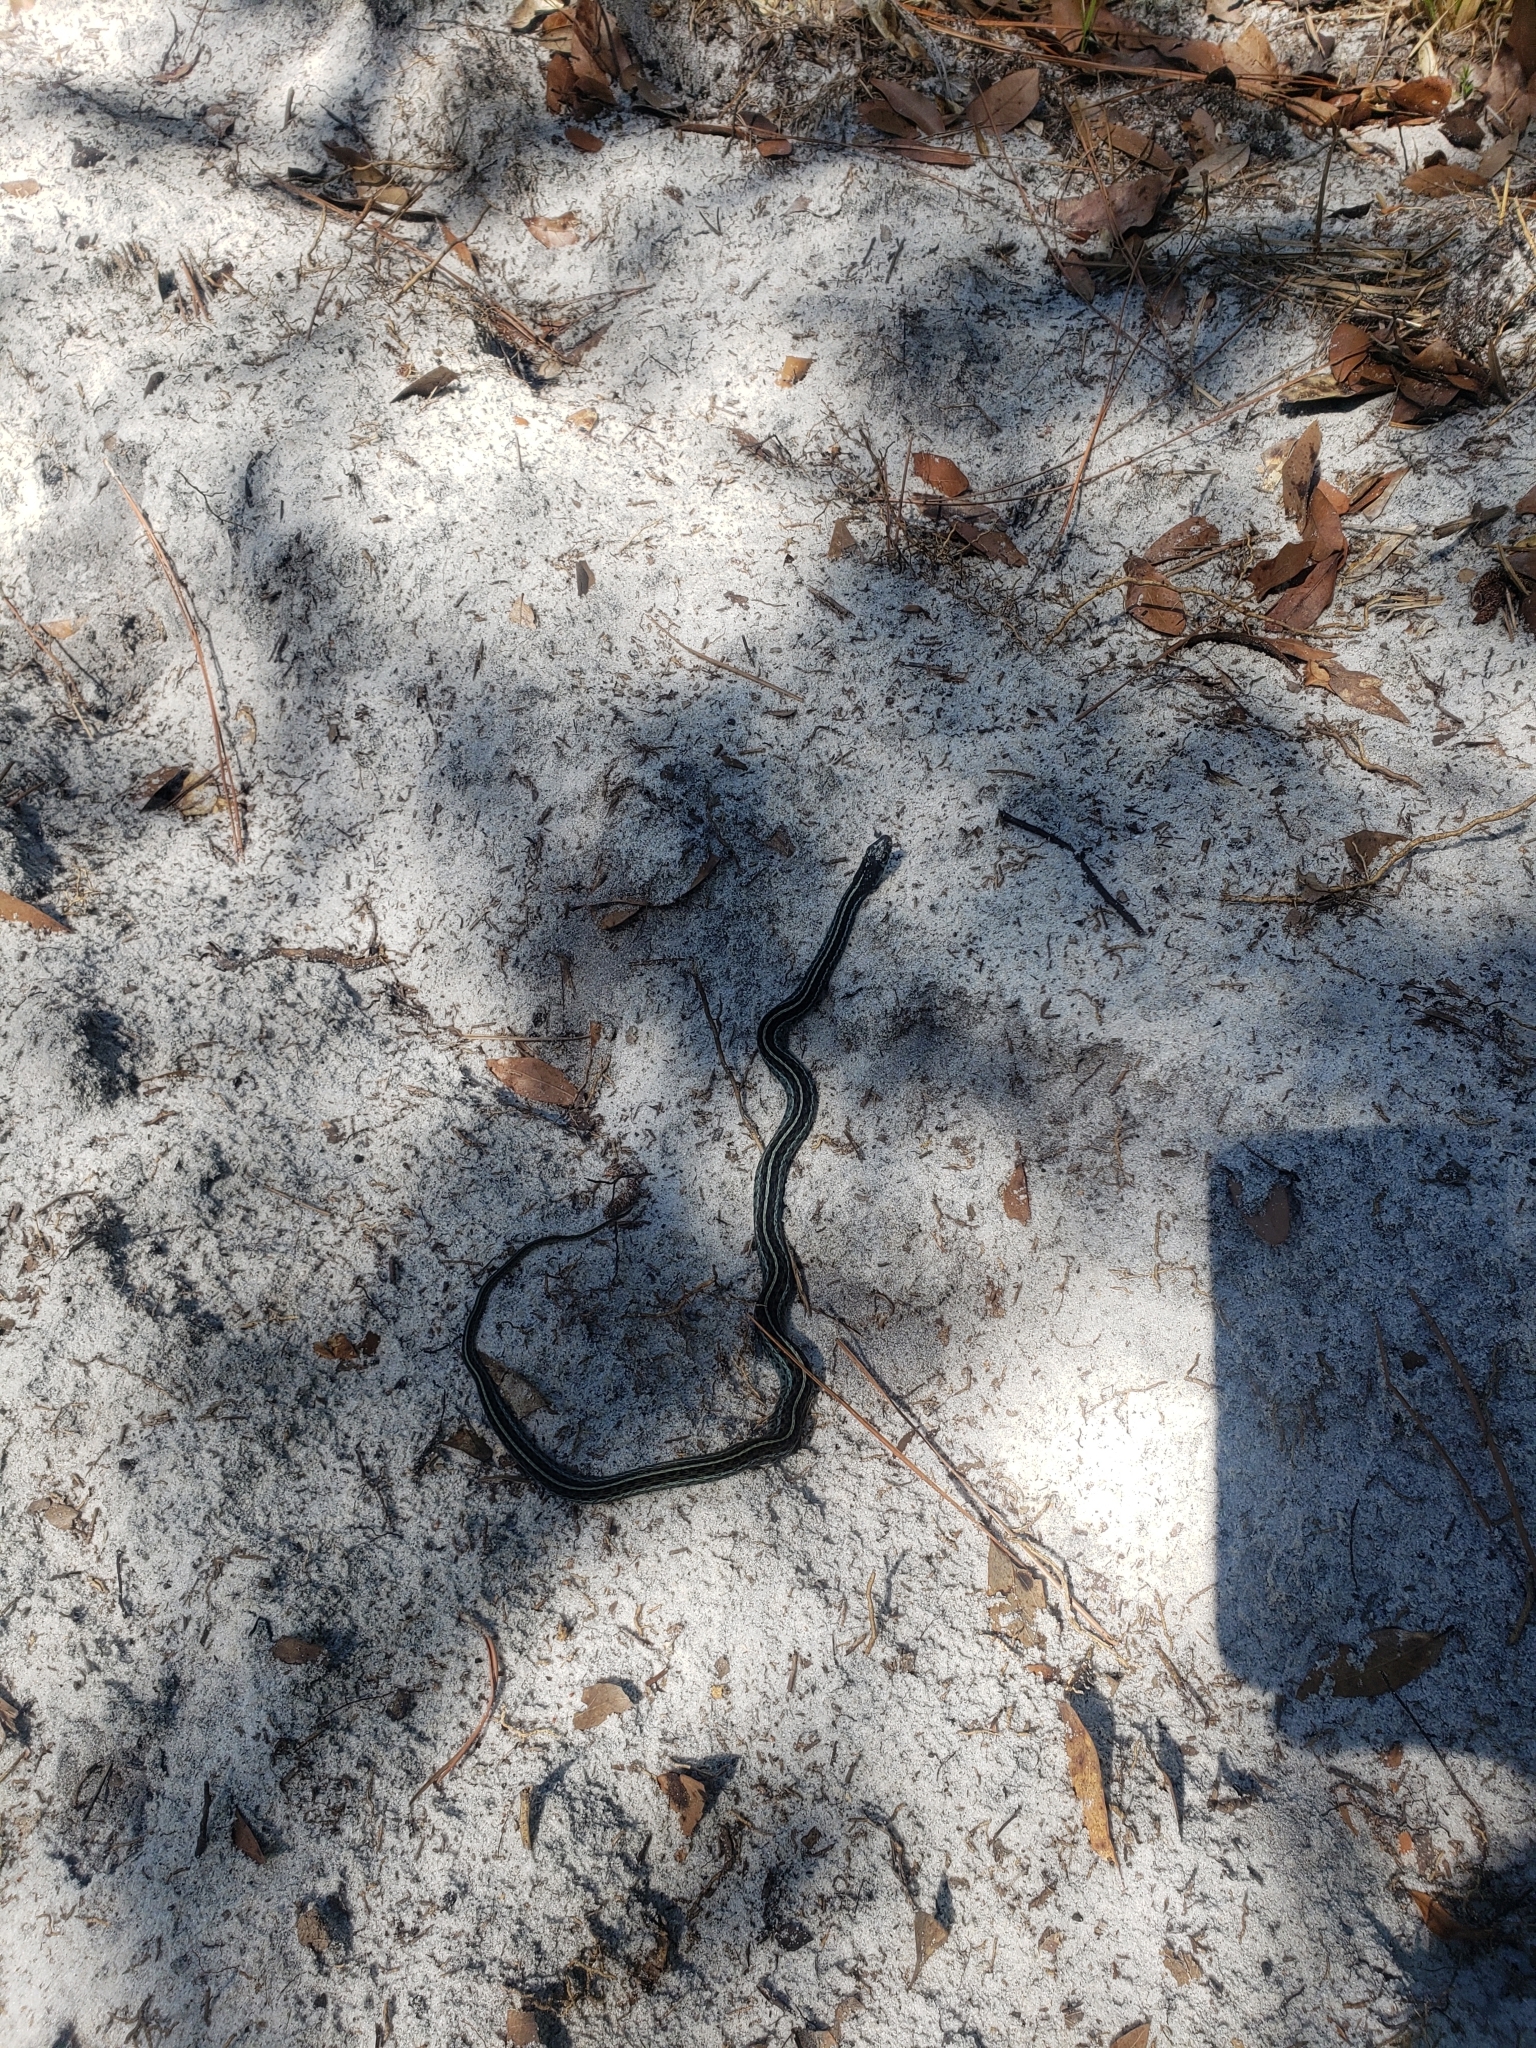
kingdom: Animalia
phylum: Chordata
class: Squamata
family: Colubridae
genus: Thamnophis
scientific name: Thamnophis sirtalis
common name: Common garter snake
